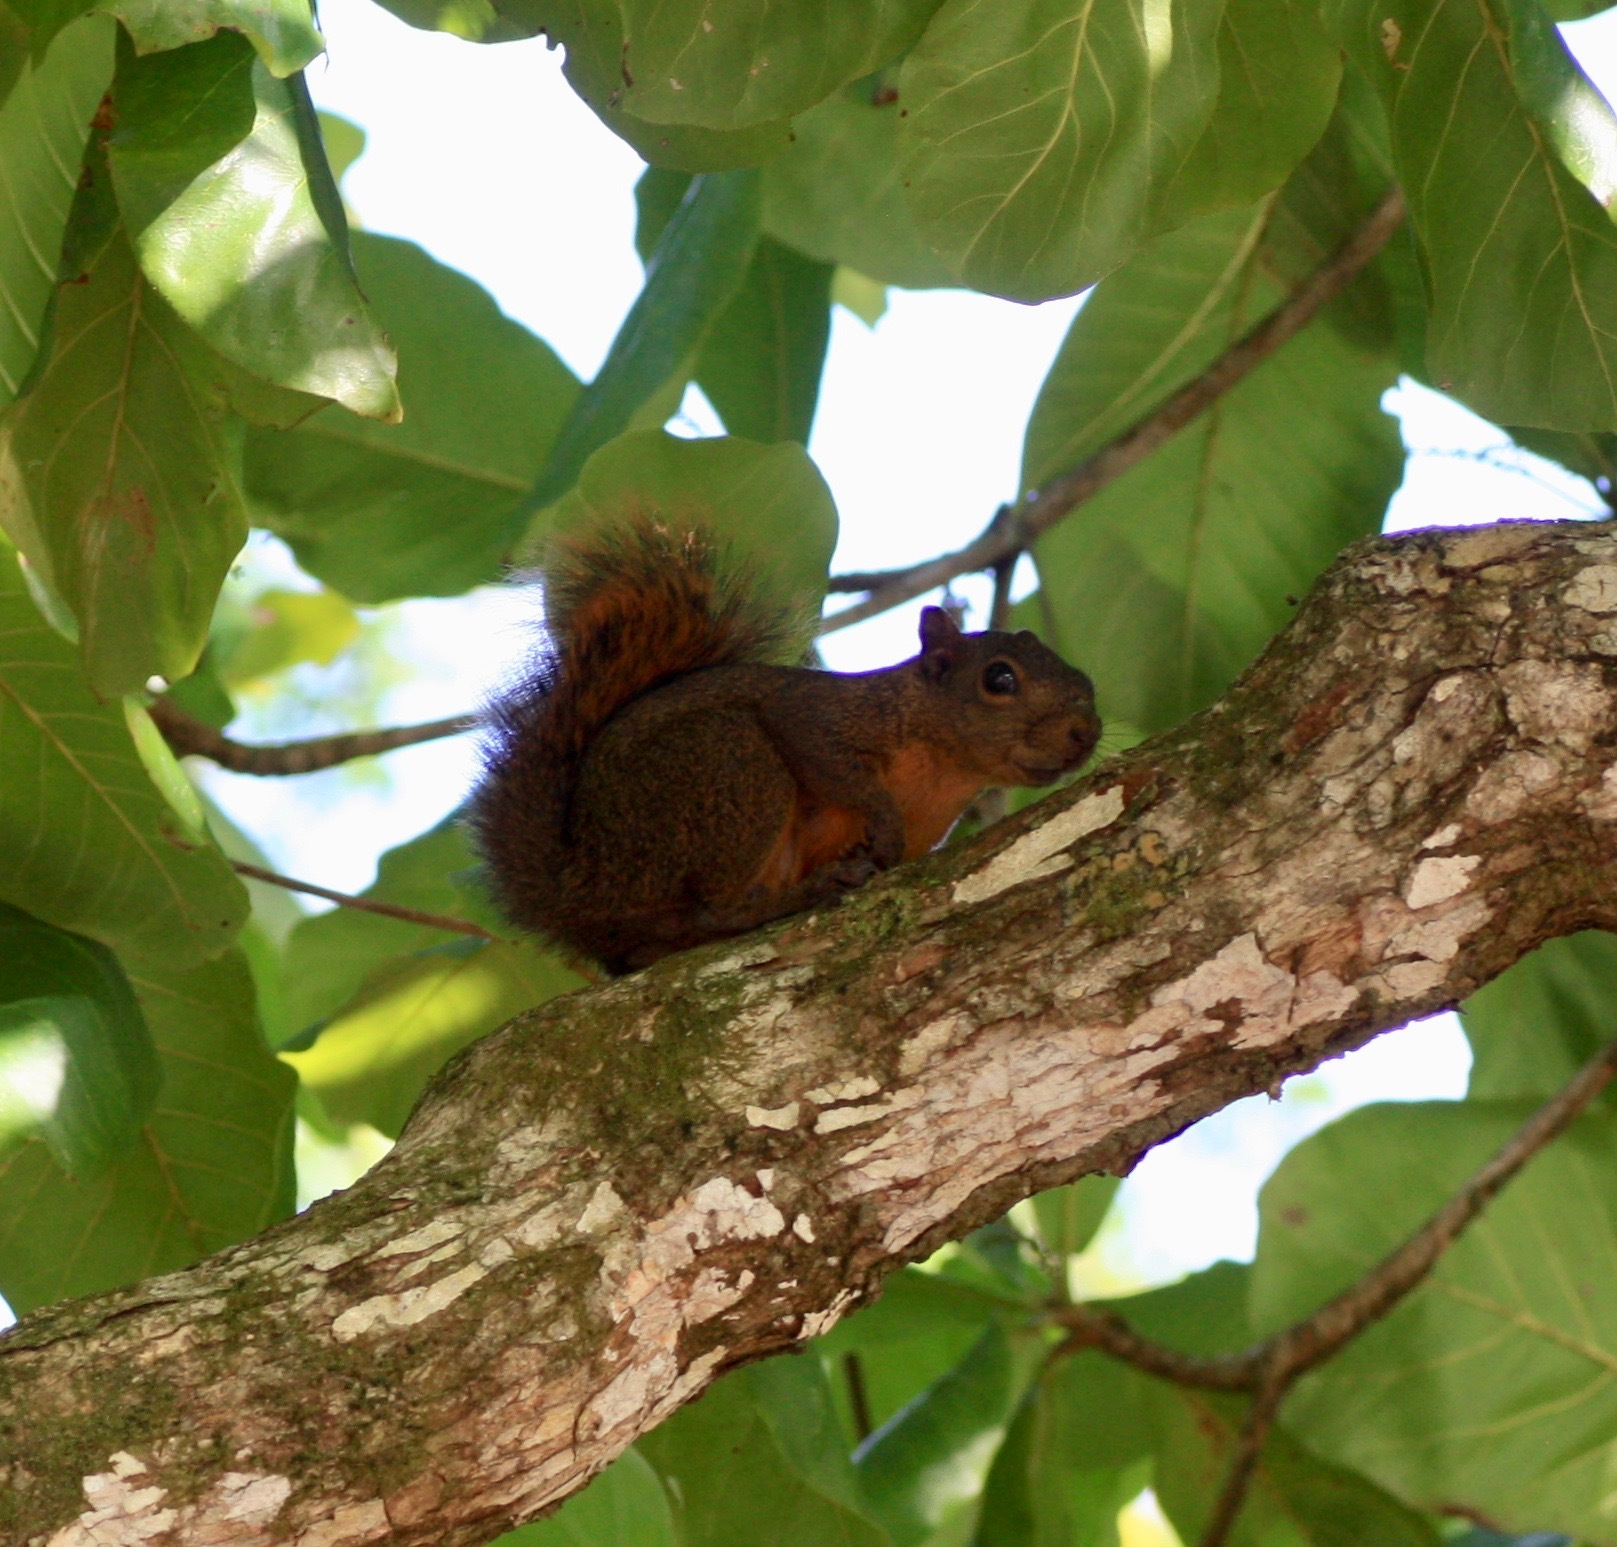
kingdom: Animalia
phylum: Chordata
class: Mammalia
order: Rodentia
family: Sciuridae
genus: Sciurus
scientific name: Sciurus granatensis
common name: Red-tailed squirrel
